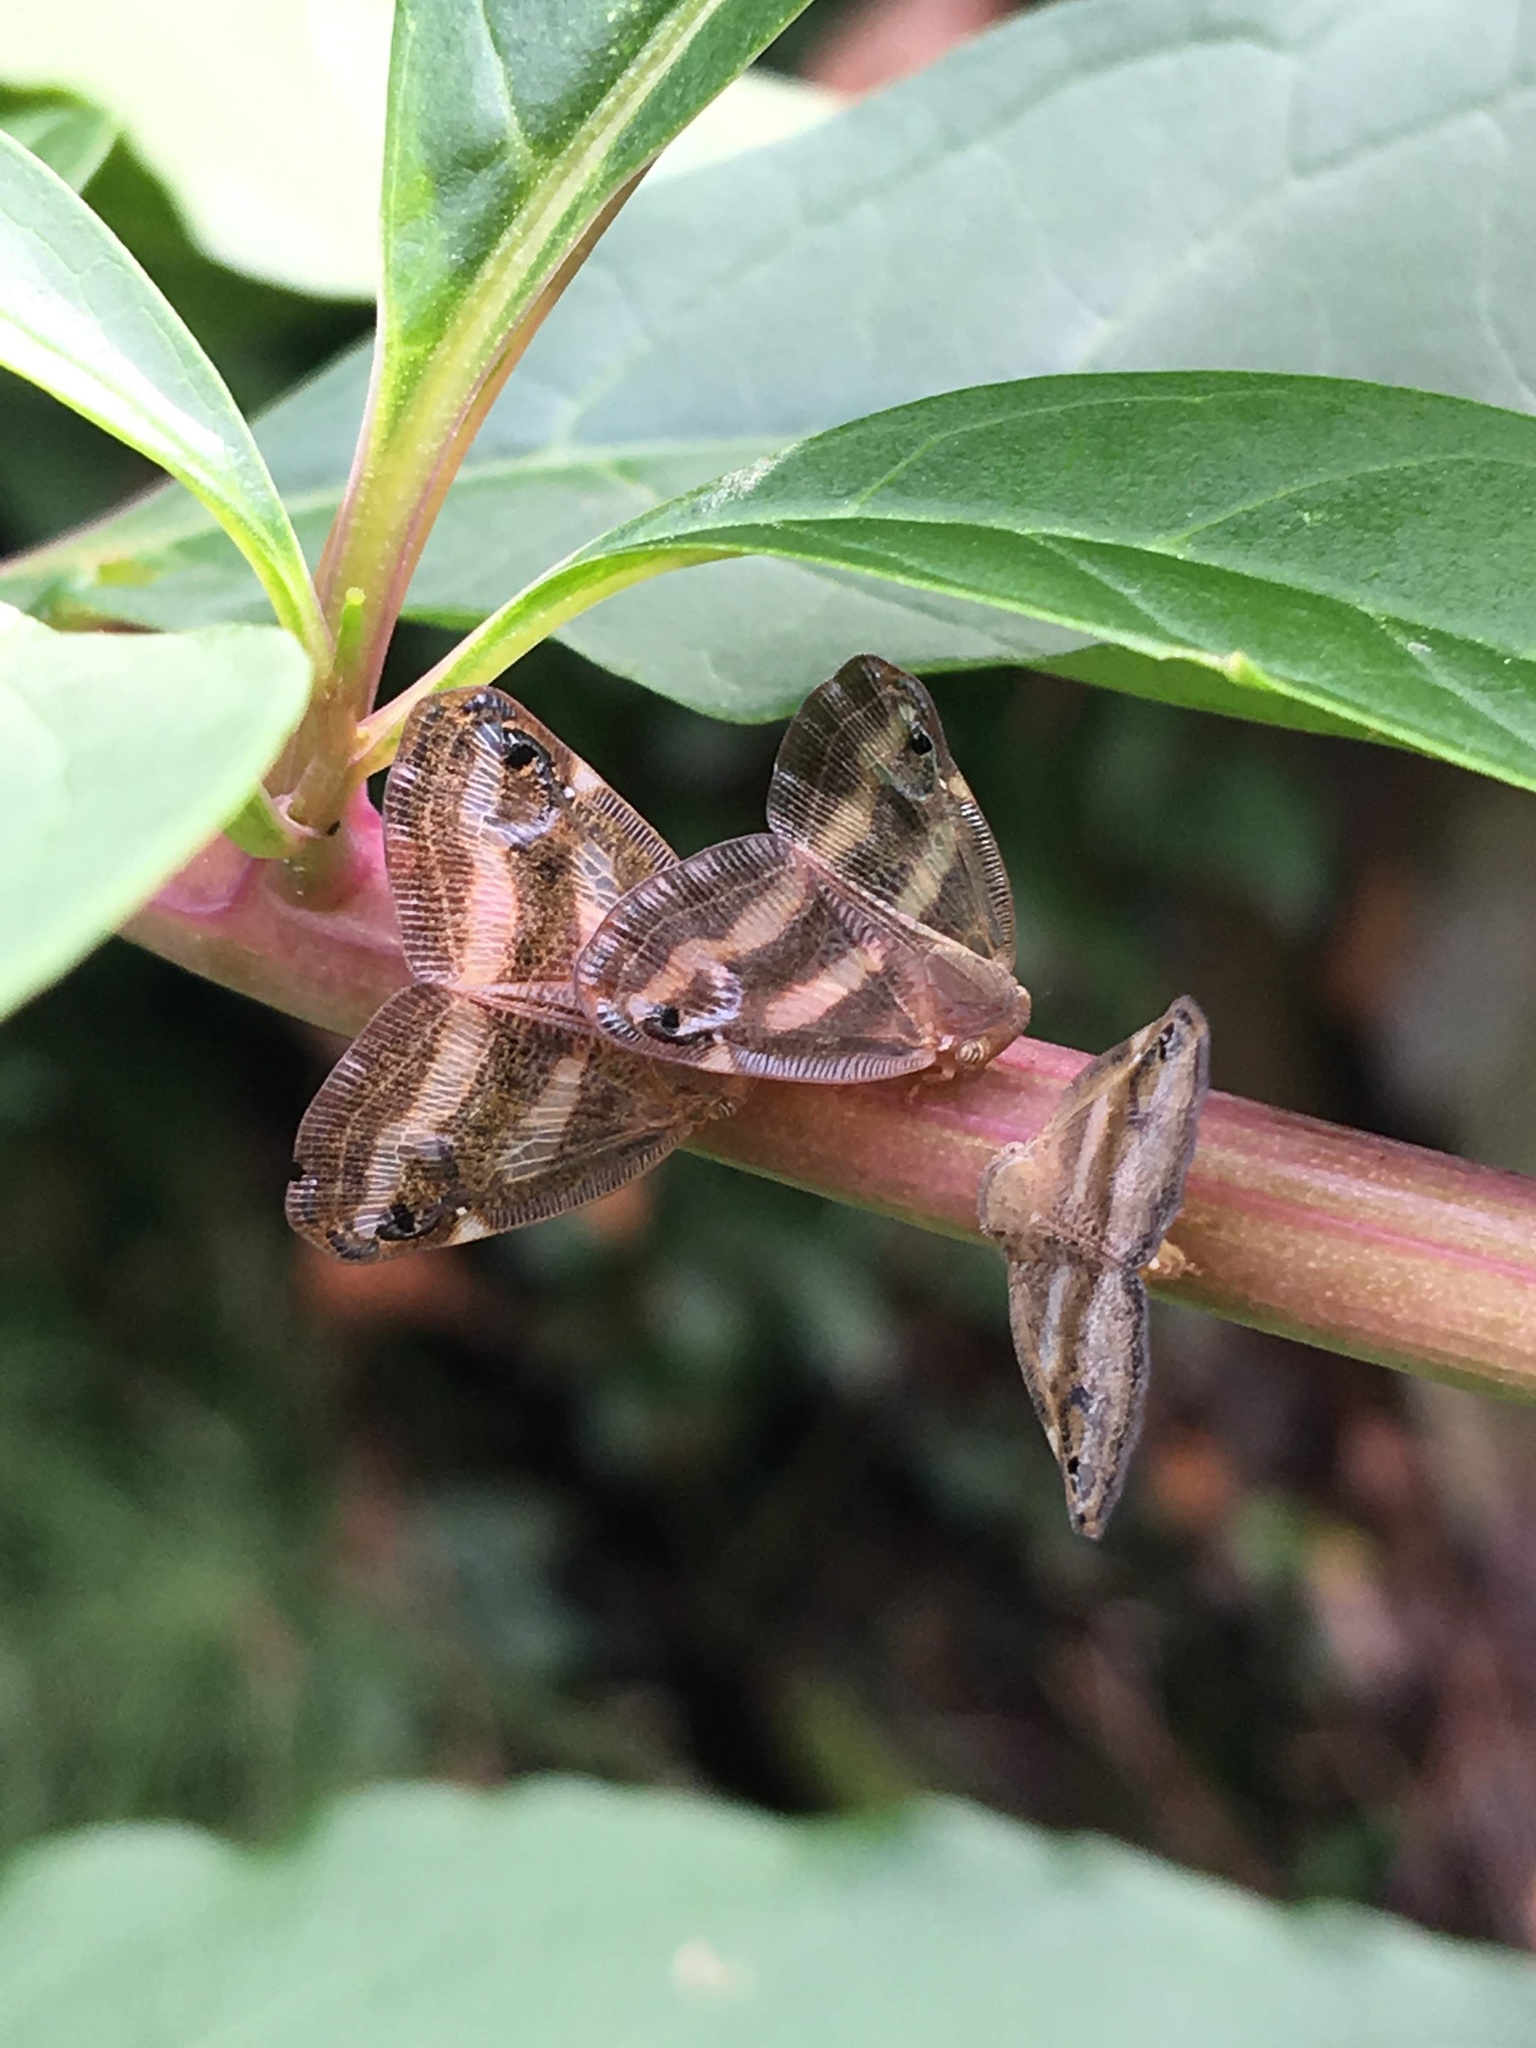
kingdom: Animalia
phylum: Arthropoda
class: Insecta
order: Hemiptera
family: Ricaniidae
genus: Orosanga
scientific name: Orosanga japonica
